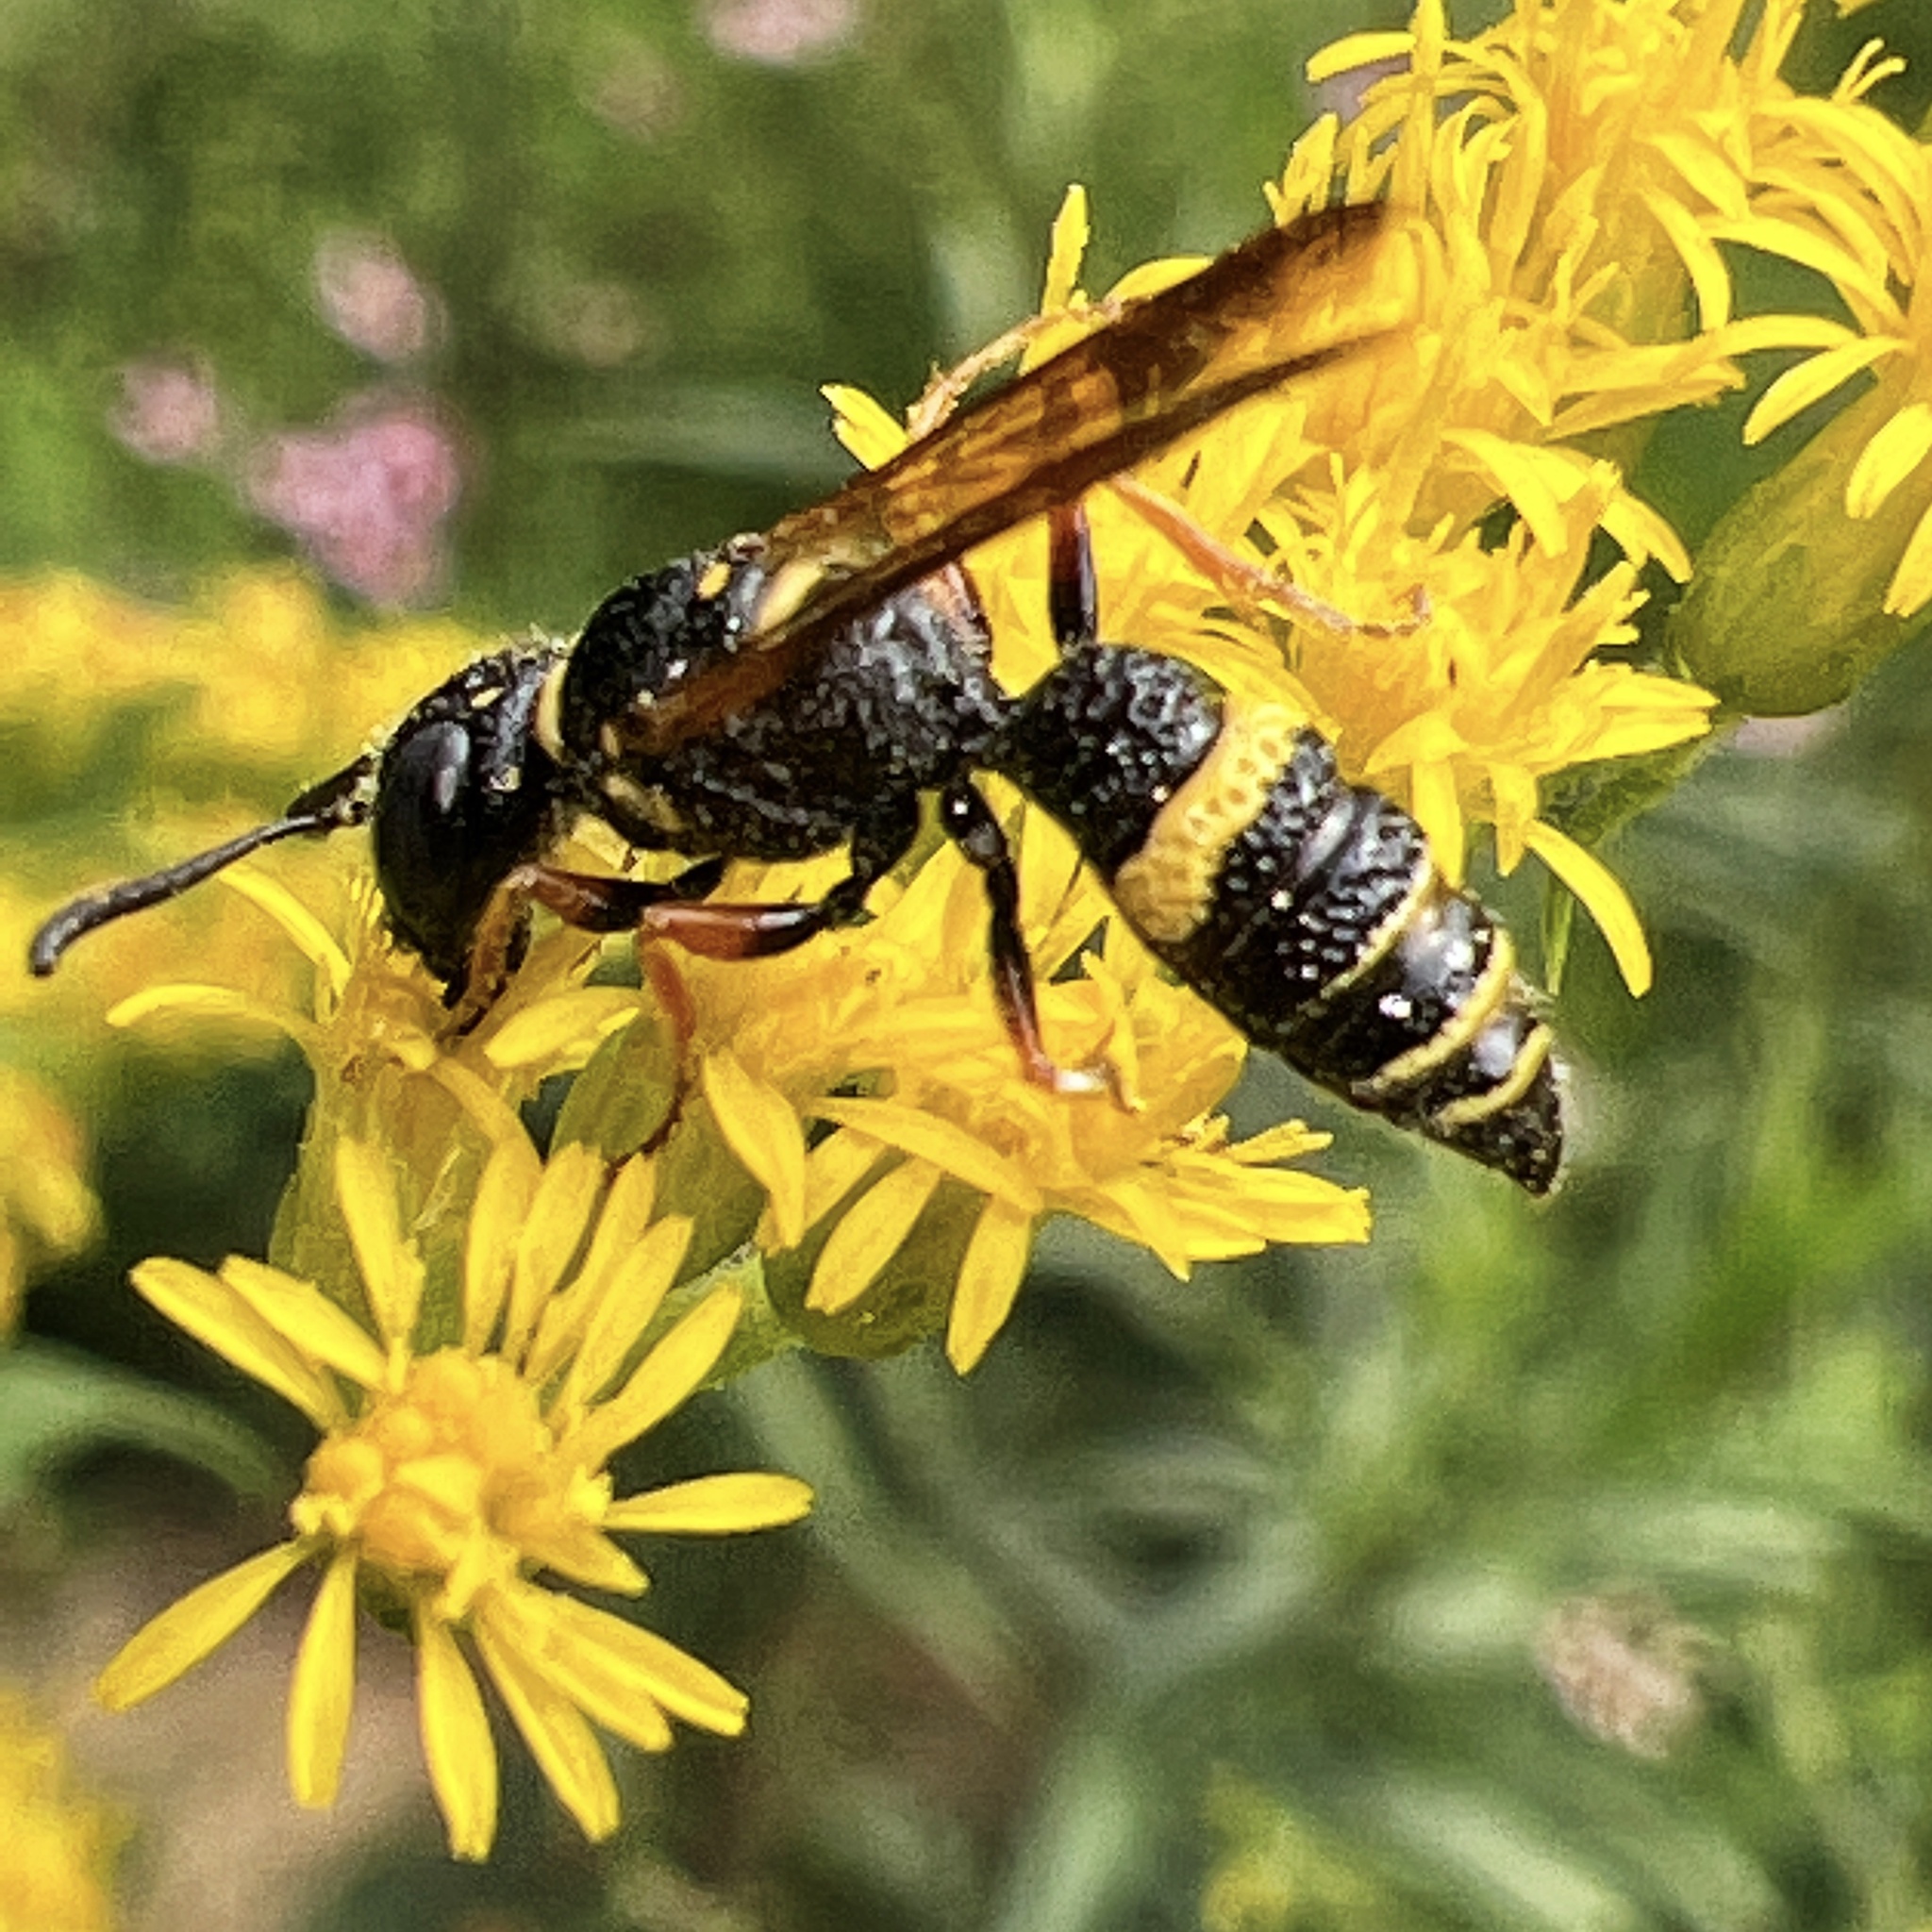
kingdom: Animalia
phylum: Arthropoda
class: Insecta
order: Hymenoptera
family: Crabronidae
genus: Philanthus
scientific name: Philanthus gibbosus
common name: Humped beewolf
